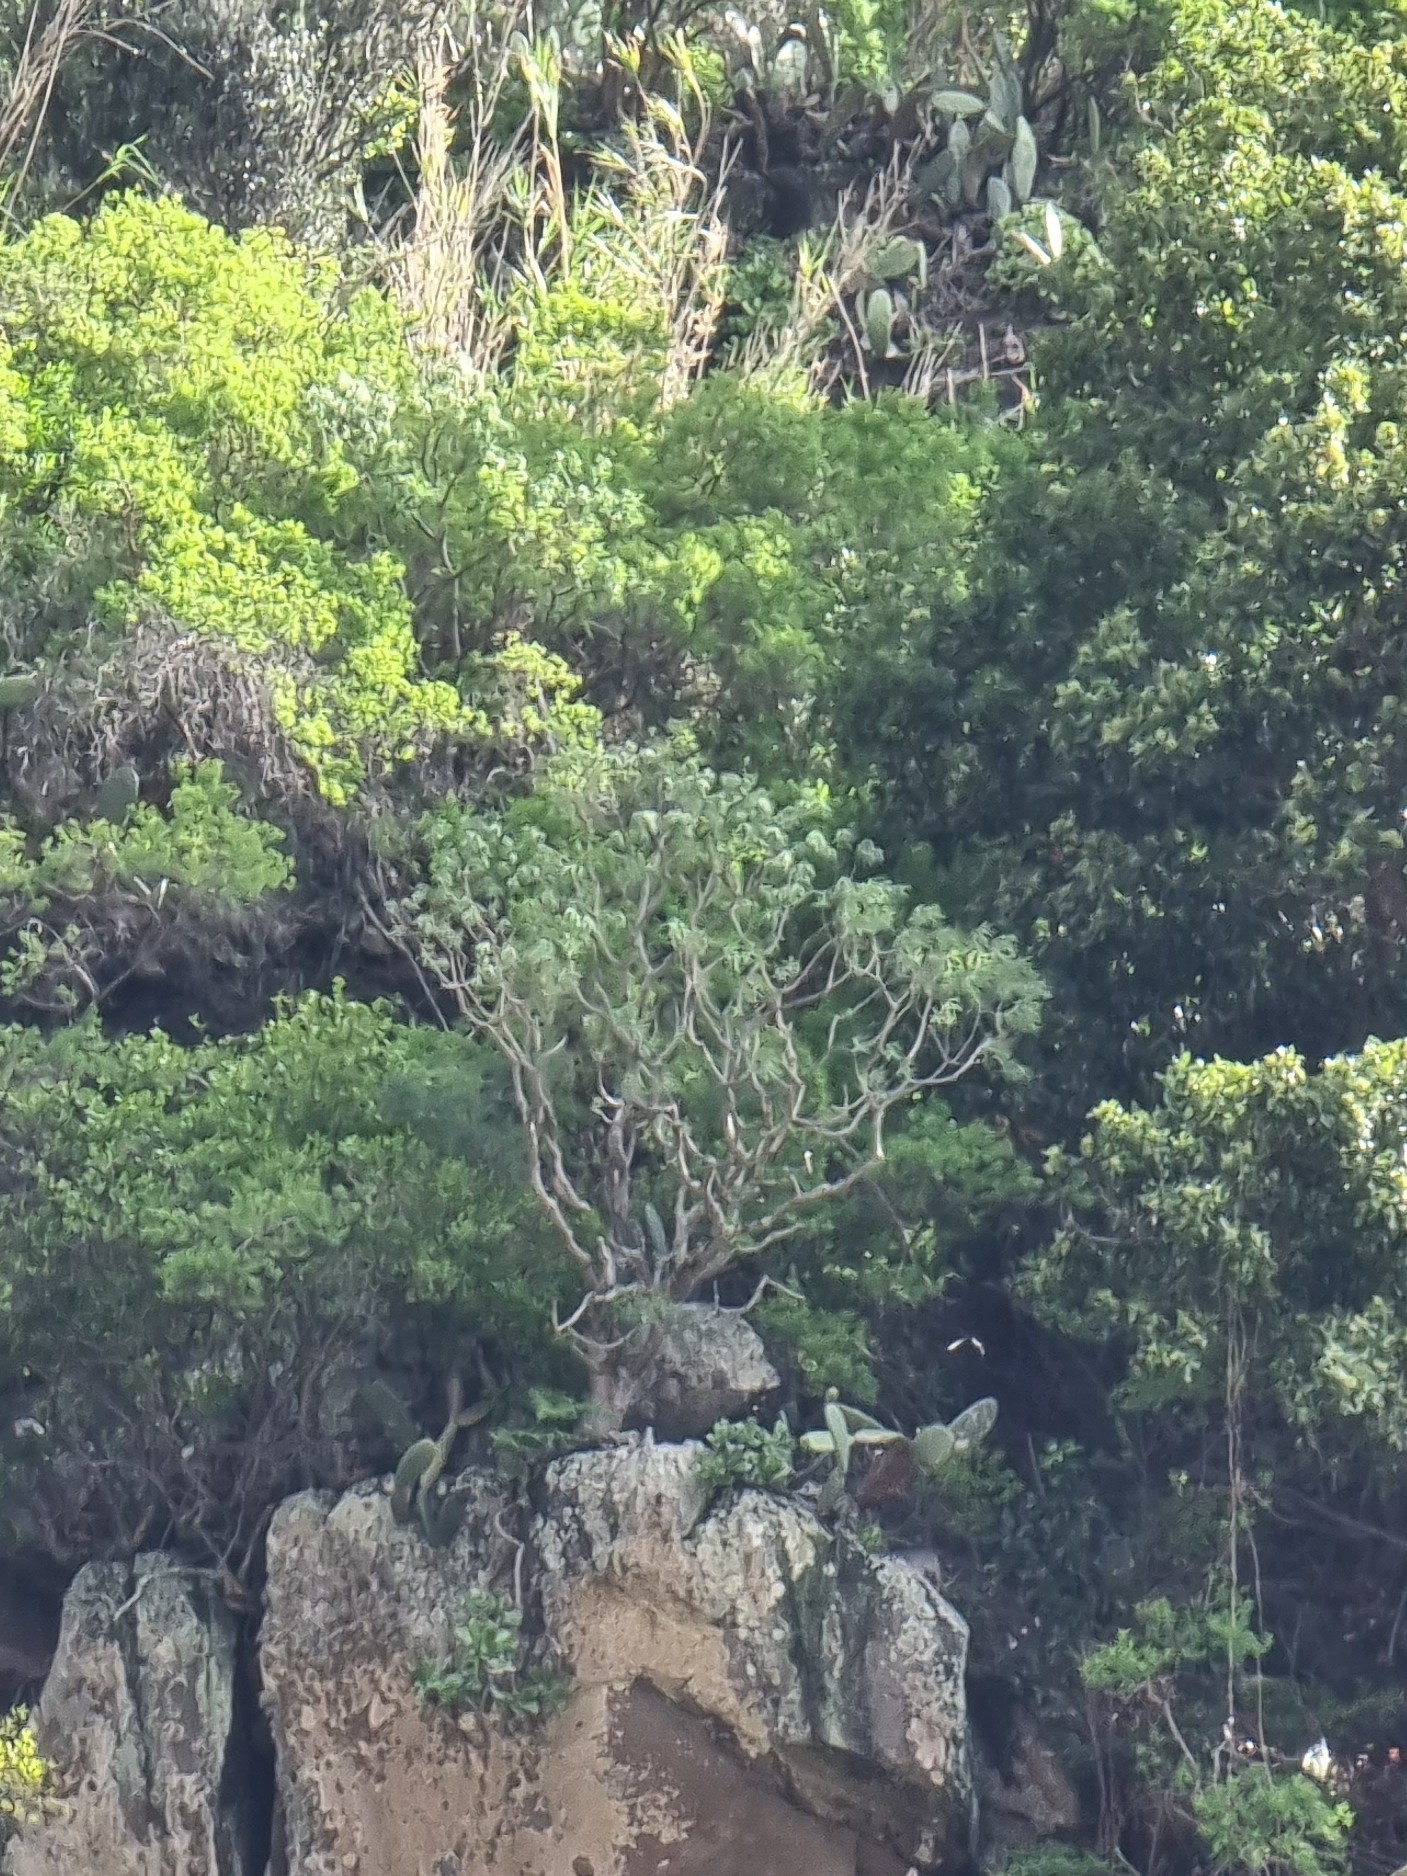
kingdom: Plantae
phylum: Tracheophyta
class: Magnoliopsida
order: Malpighiales
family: Euphorbiaceae
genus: Euphorbia
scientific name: Euphorbia piscatoria
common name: Fish-stunning spurge
